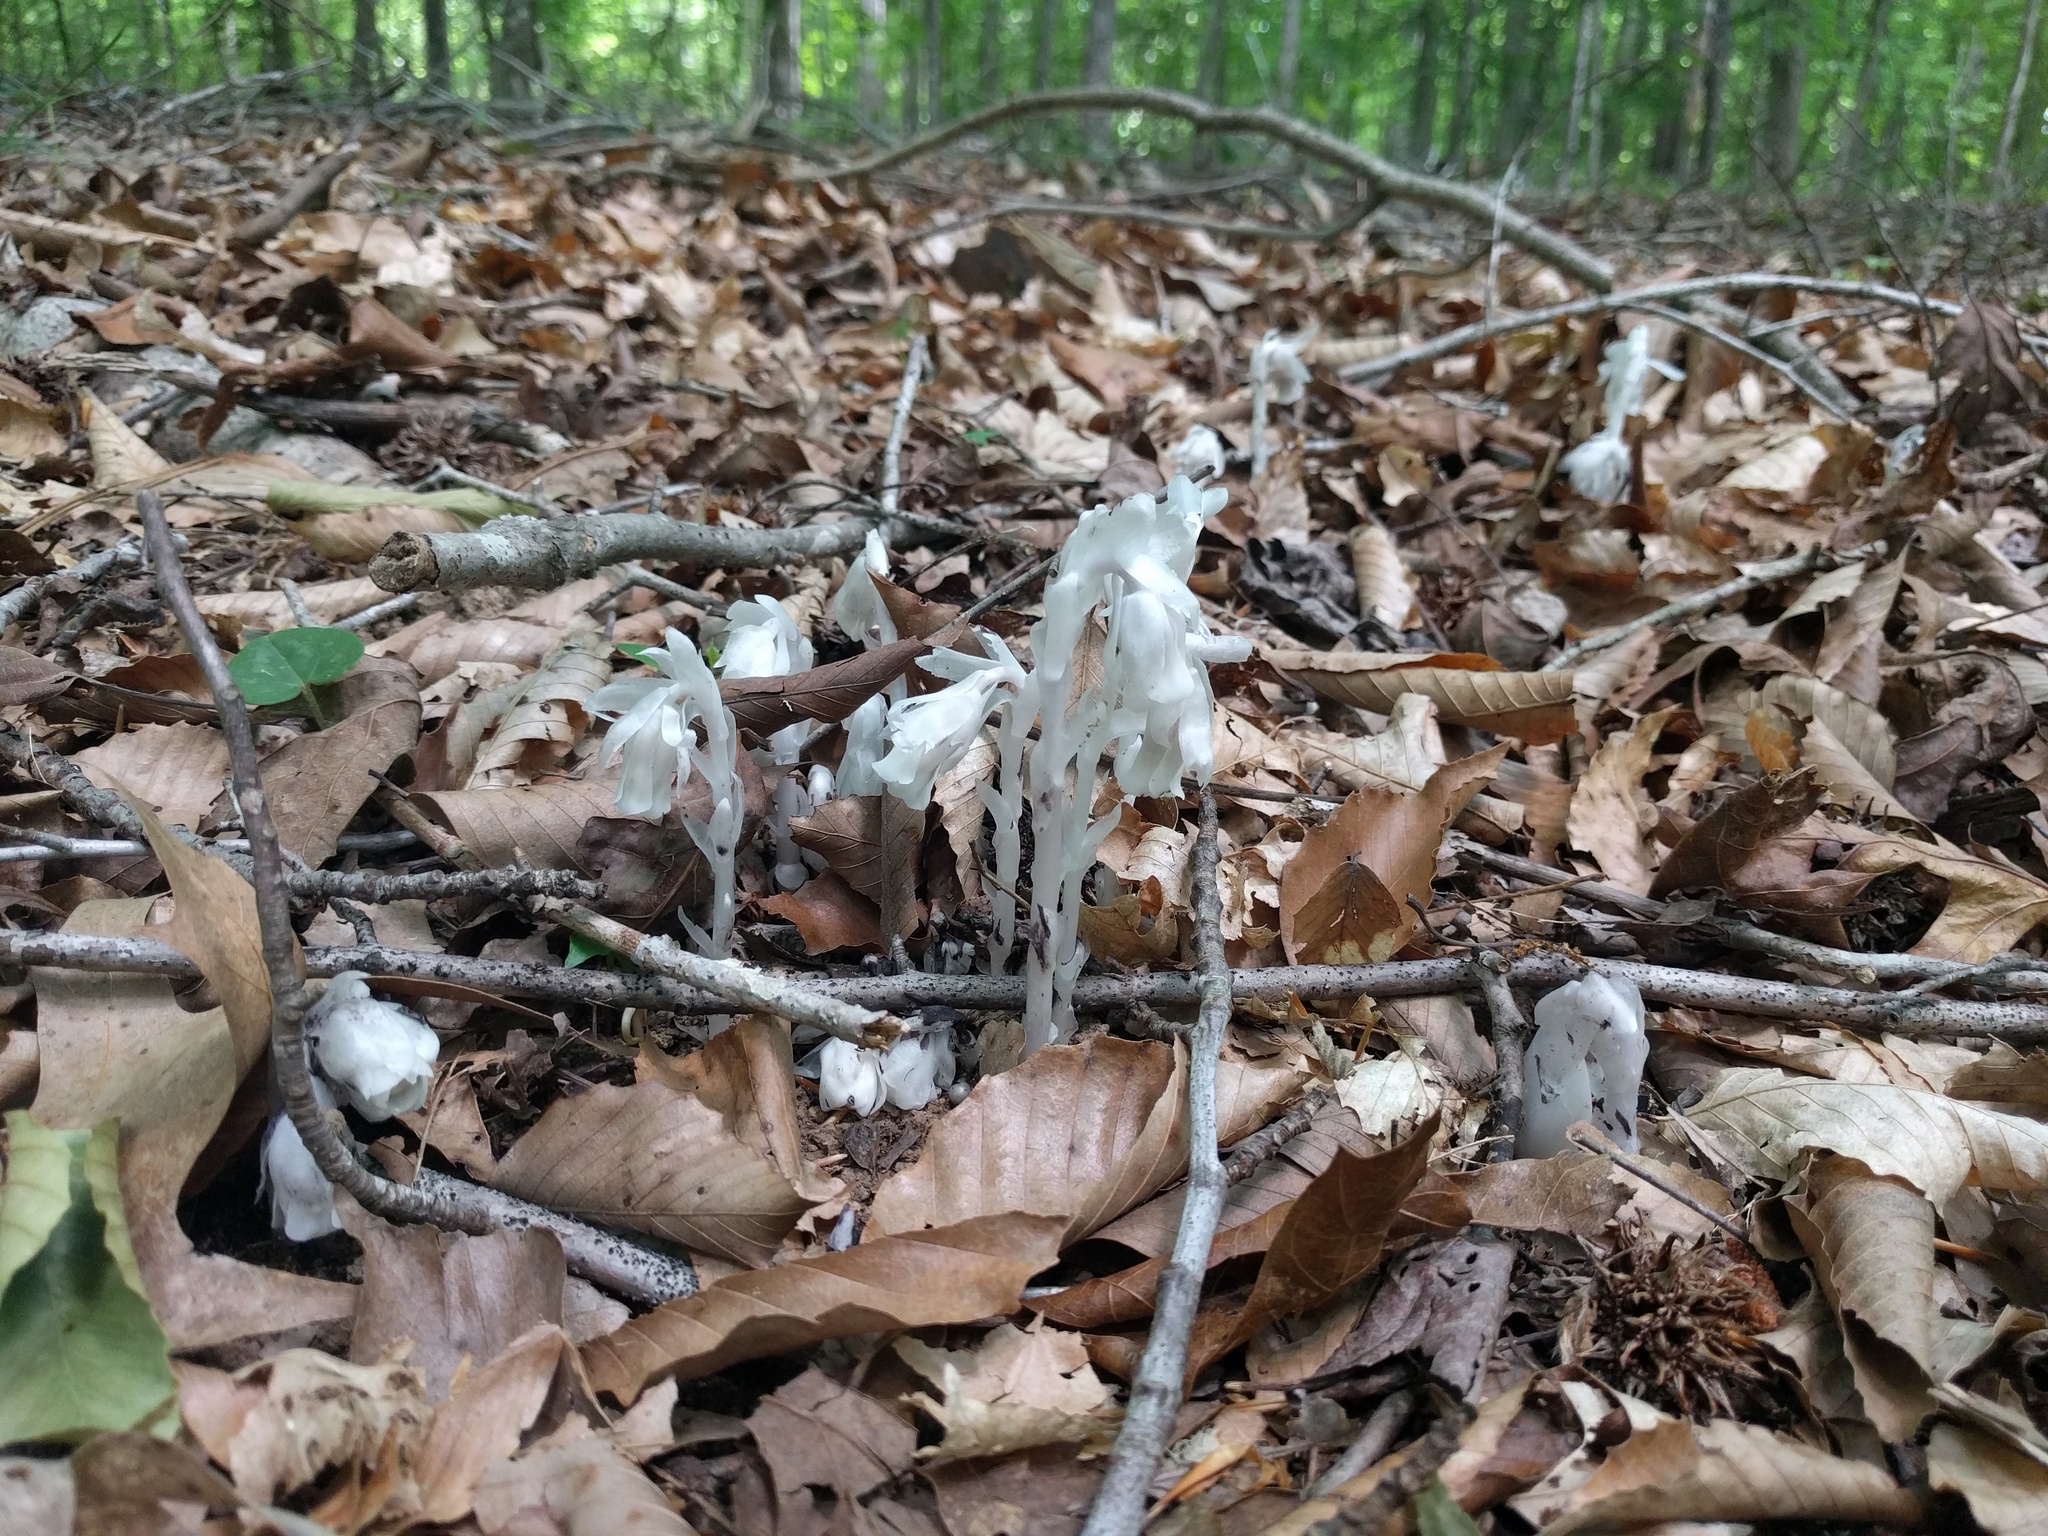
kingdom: Plantae
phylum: Tracheophyta
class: Magnoliopsida
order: Ericales
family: Ericaceae
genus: Monotropa
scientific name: Monotropa uniflora
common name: Convulsion root
